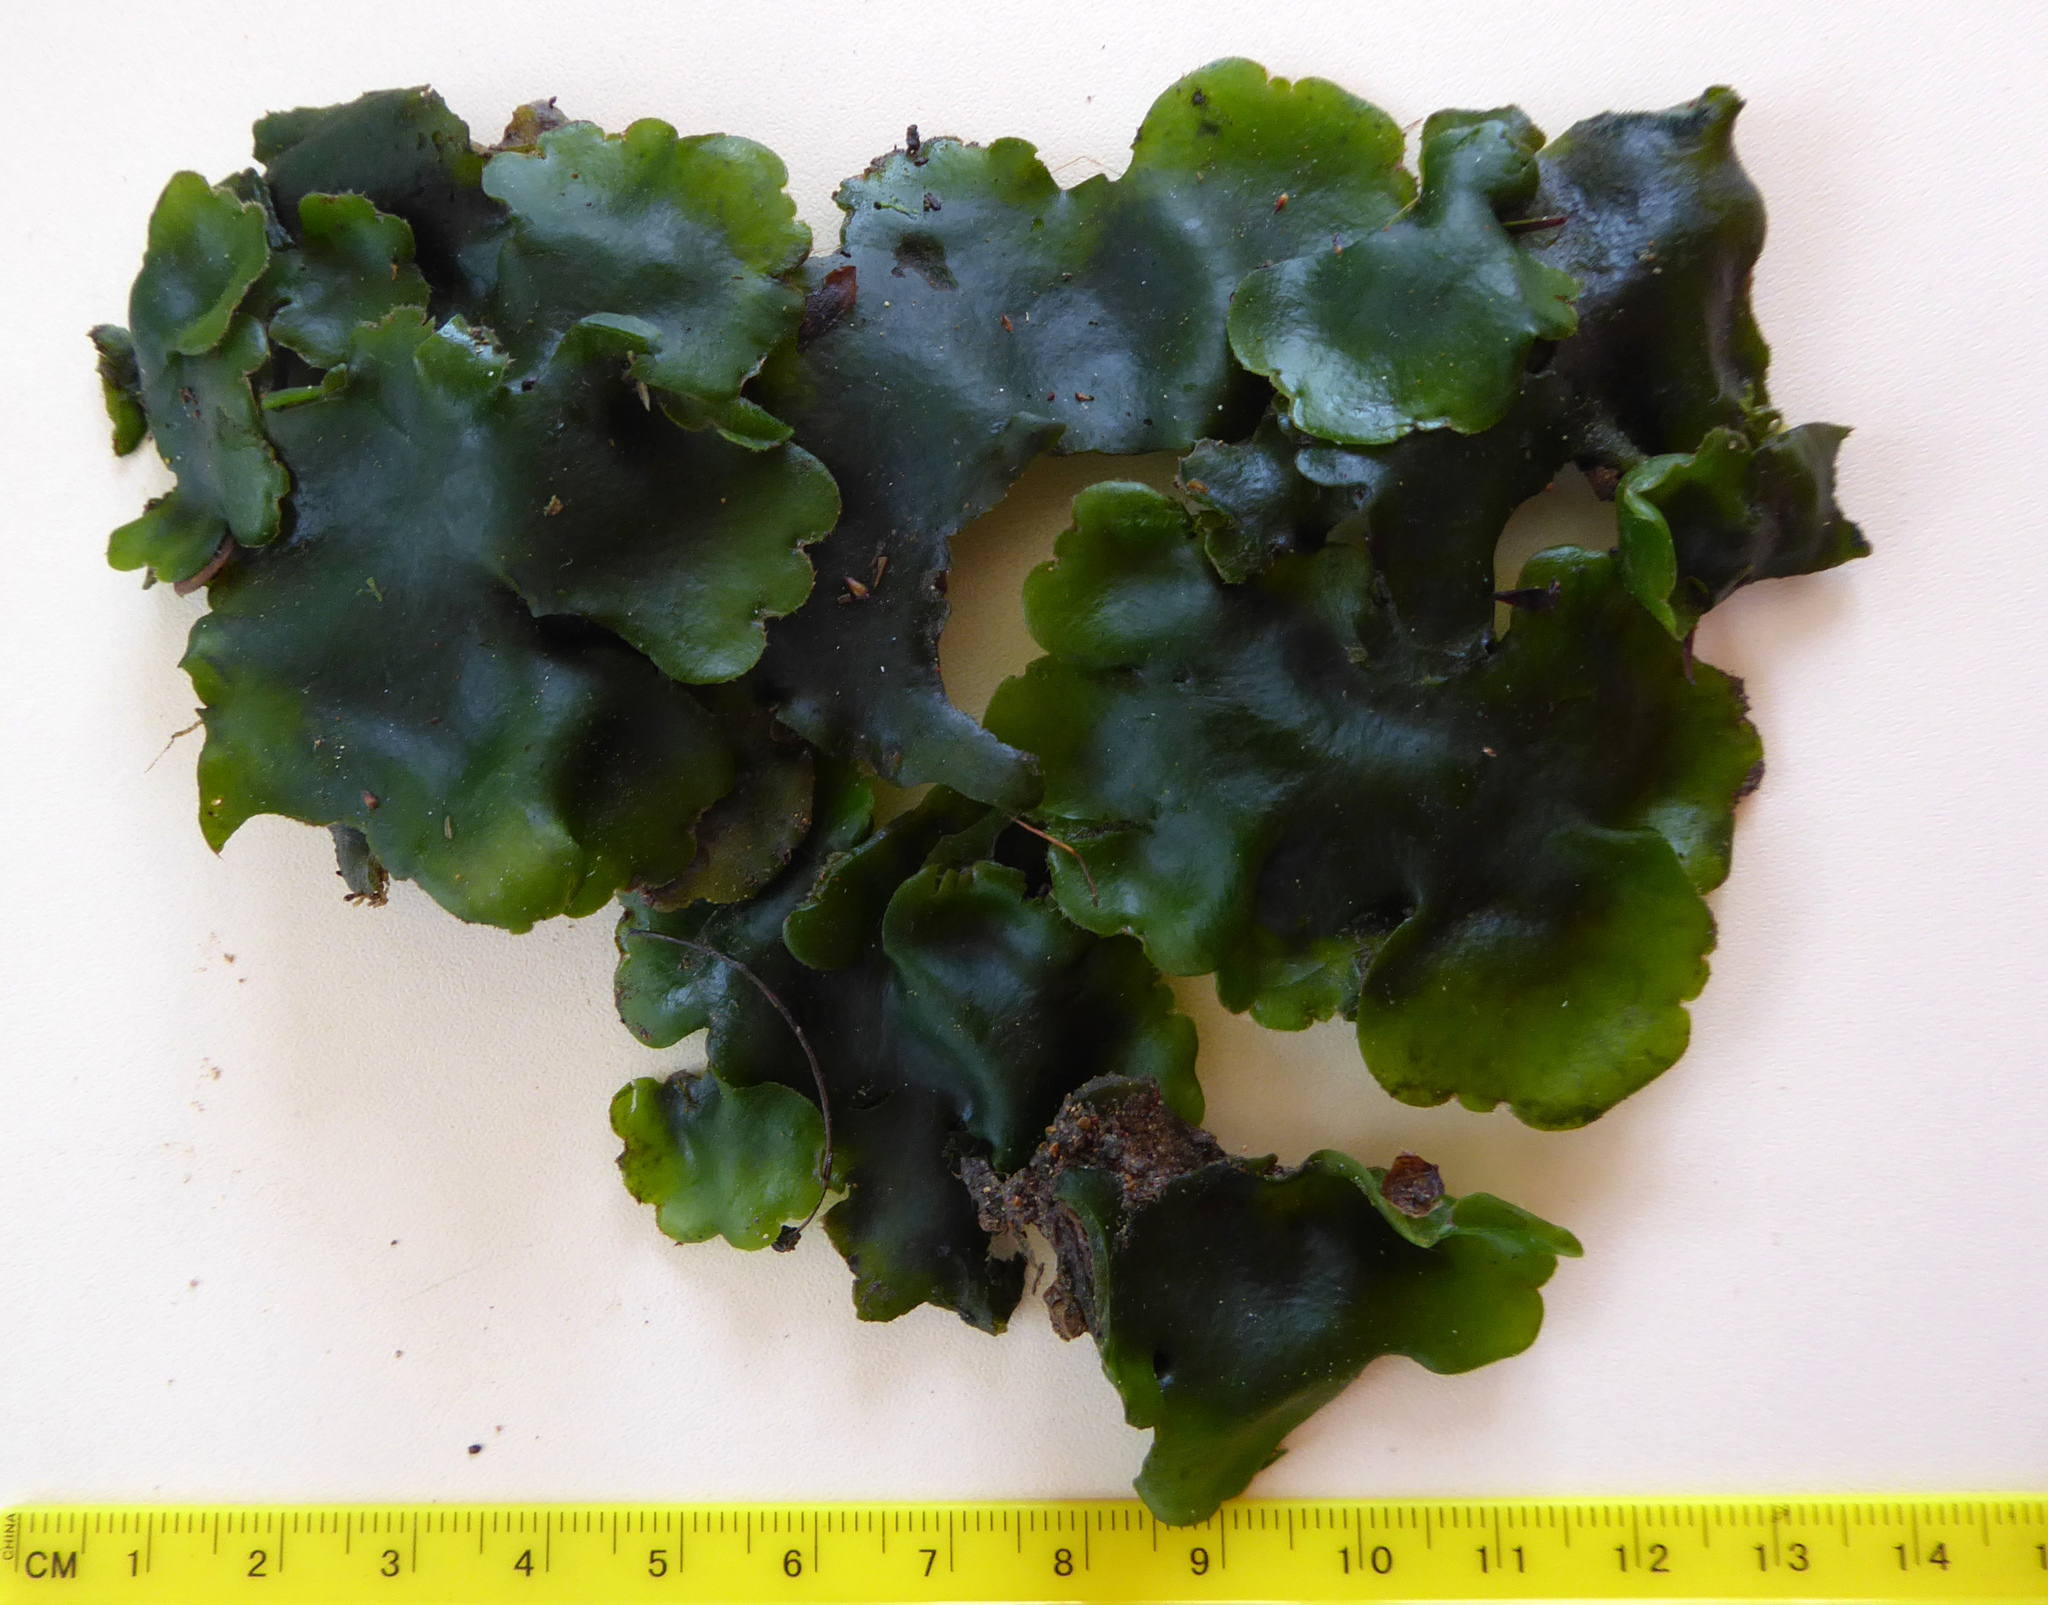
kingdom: Plantae
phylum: Marchantiophyta
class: Marchantiopsida
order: Marchantiales
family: Monocleaceae
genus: Monoclea
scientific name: Monoclea forsteri
